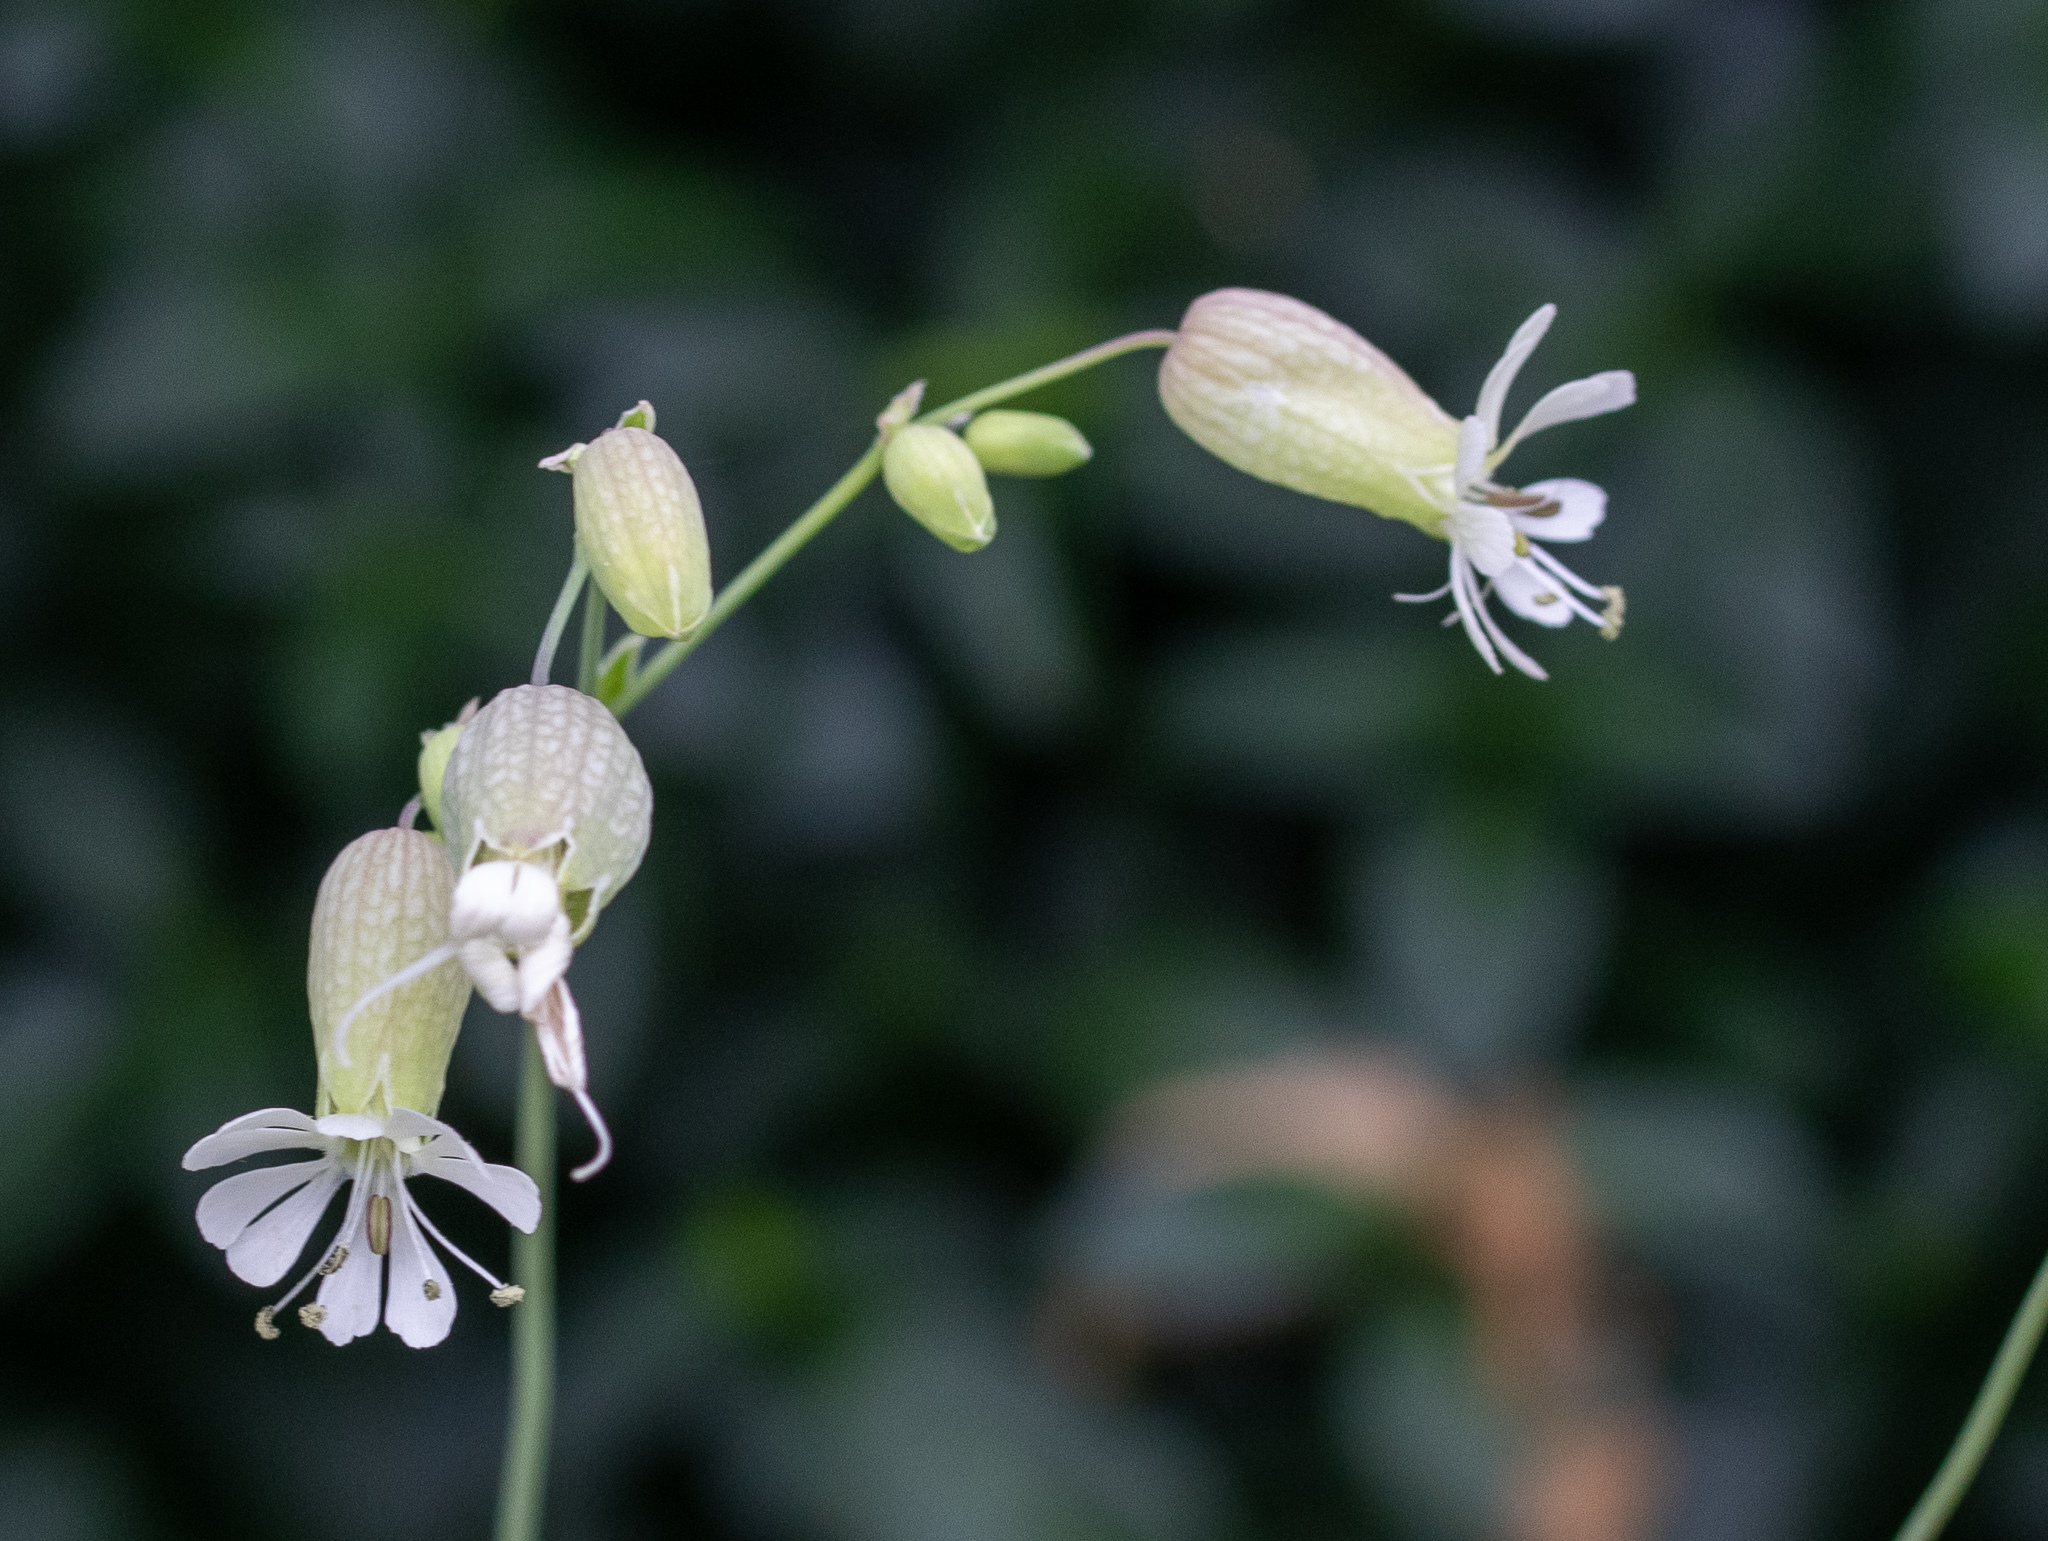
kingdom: Plantae
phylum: Tracheophyta
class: Magnoliopsida
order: Caryophyllales
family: Caryophyllaceae
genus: Silene
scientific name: Silene vulgaris
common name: Bladder campion
